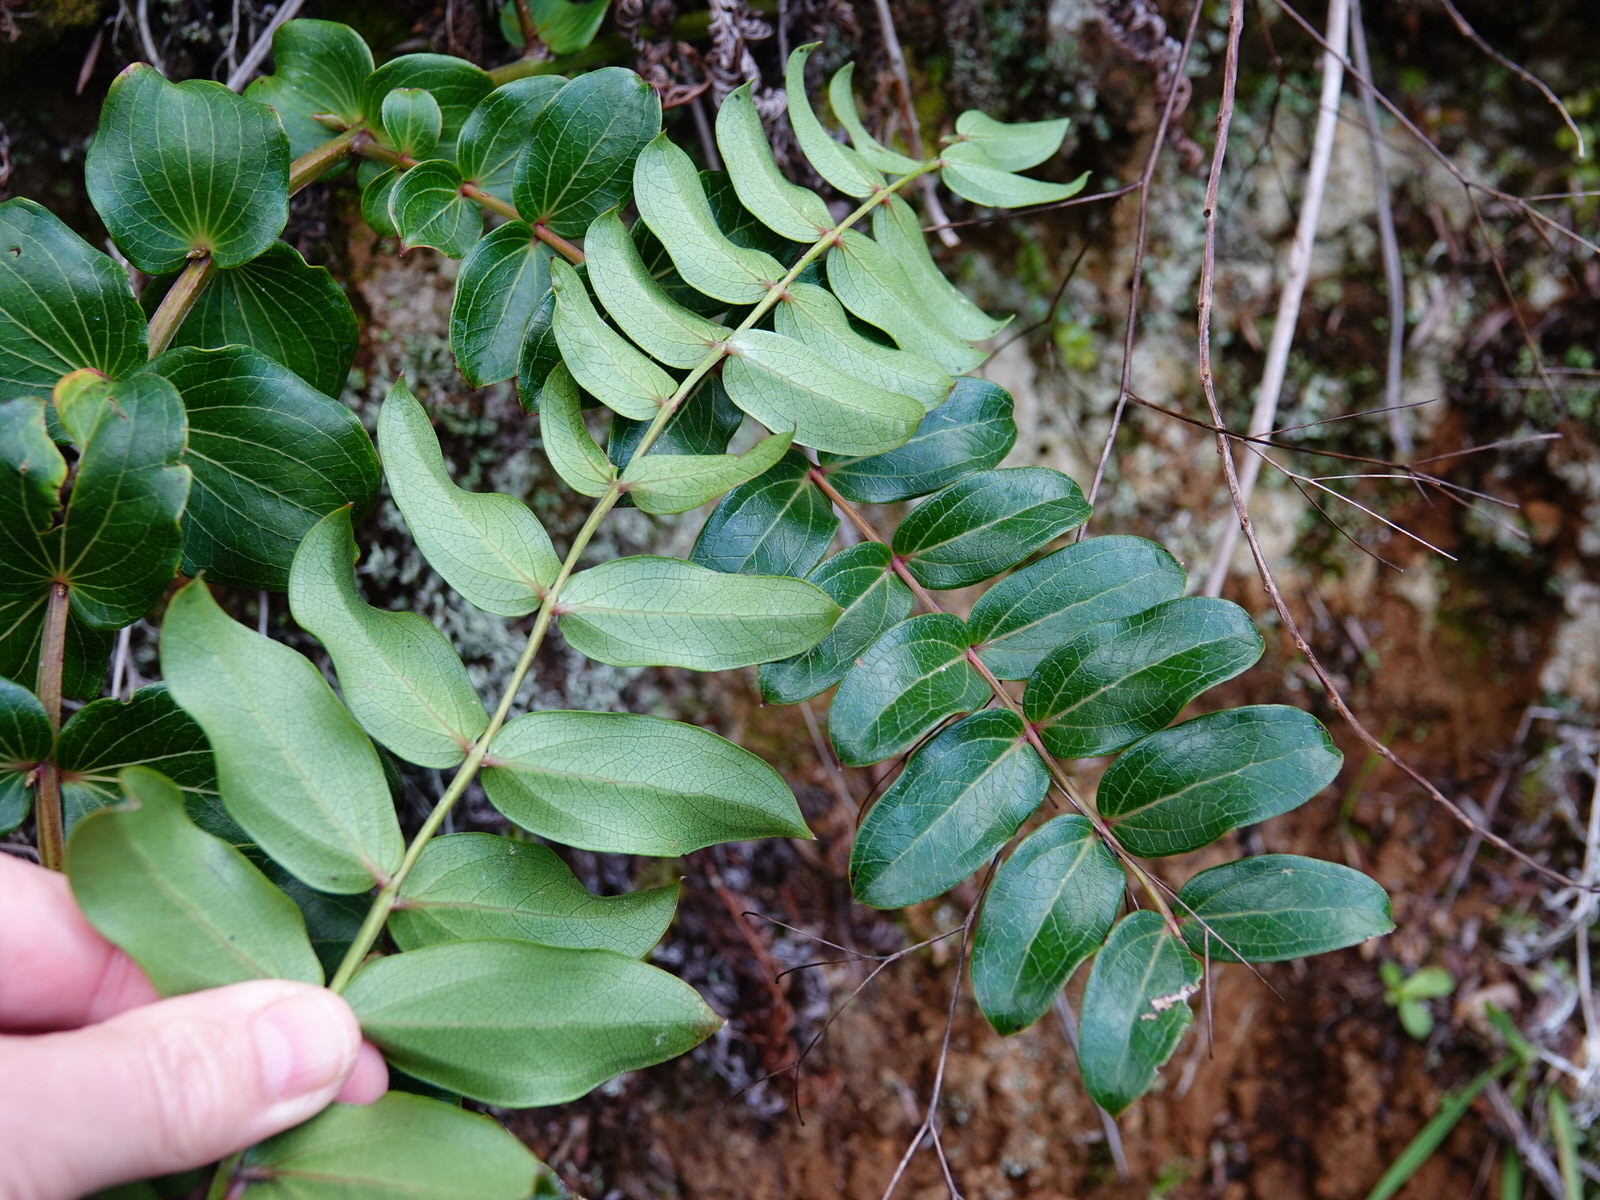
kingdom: Plantae
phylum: Tracheophyta
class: Magnoliopsida
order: Cucurbitales
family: Coriariaceae
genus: Coriaria
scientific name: Coriaria arborea
